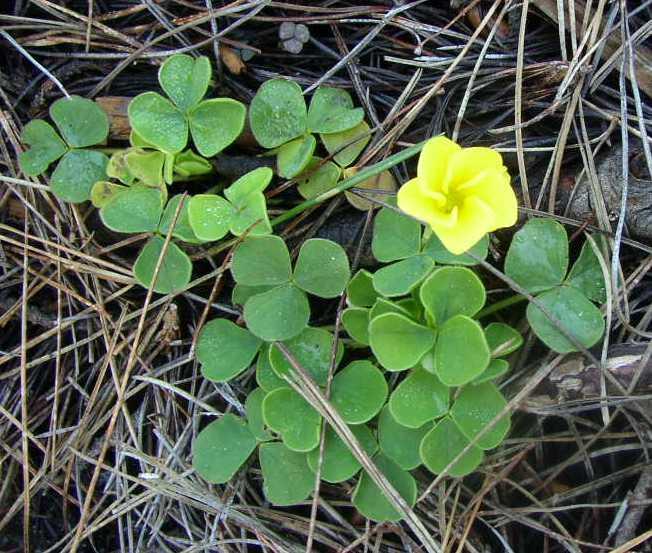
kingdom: Plantae
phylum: Tracheophyta
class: Magnoliopsida
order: Oxalidales
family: Oxalidaceae
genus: Oxalis
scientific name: Oxalis luteola
